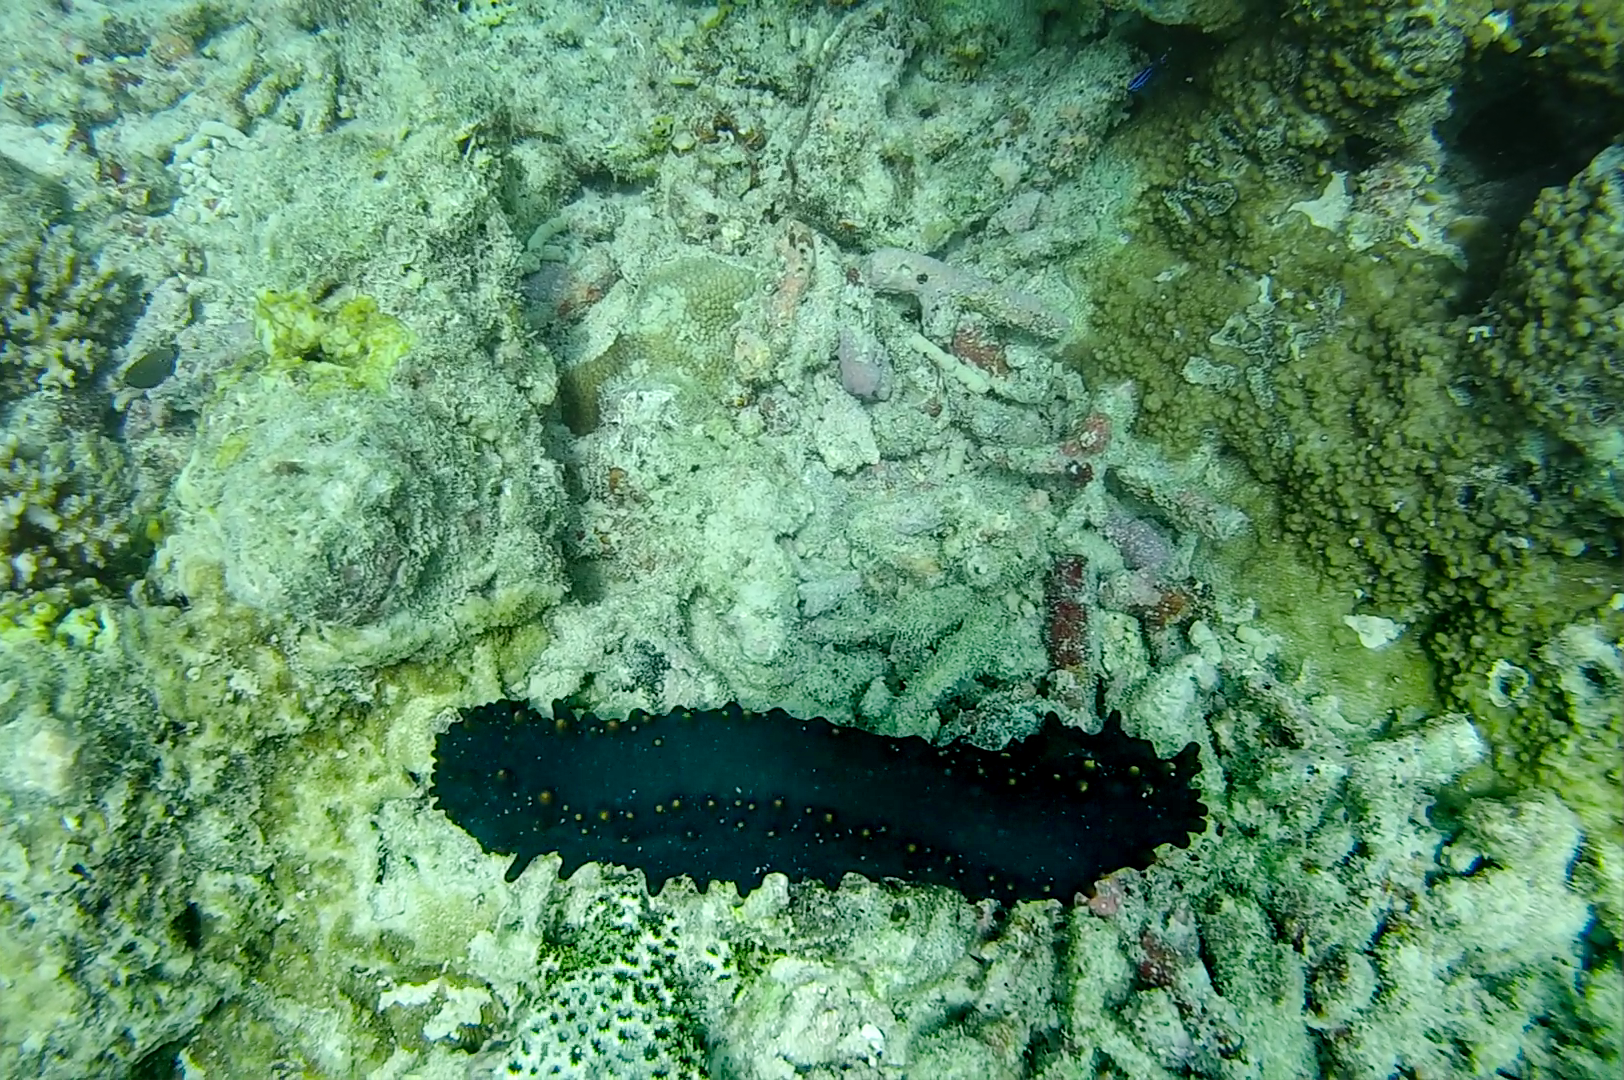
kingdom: Animalia
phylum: Echinodermata
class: Holothuroidea
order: Synallactida
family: Stichopodidae
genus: Stichopus
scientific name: Stichopus chloronotus
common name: Greenfish
